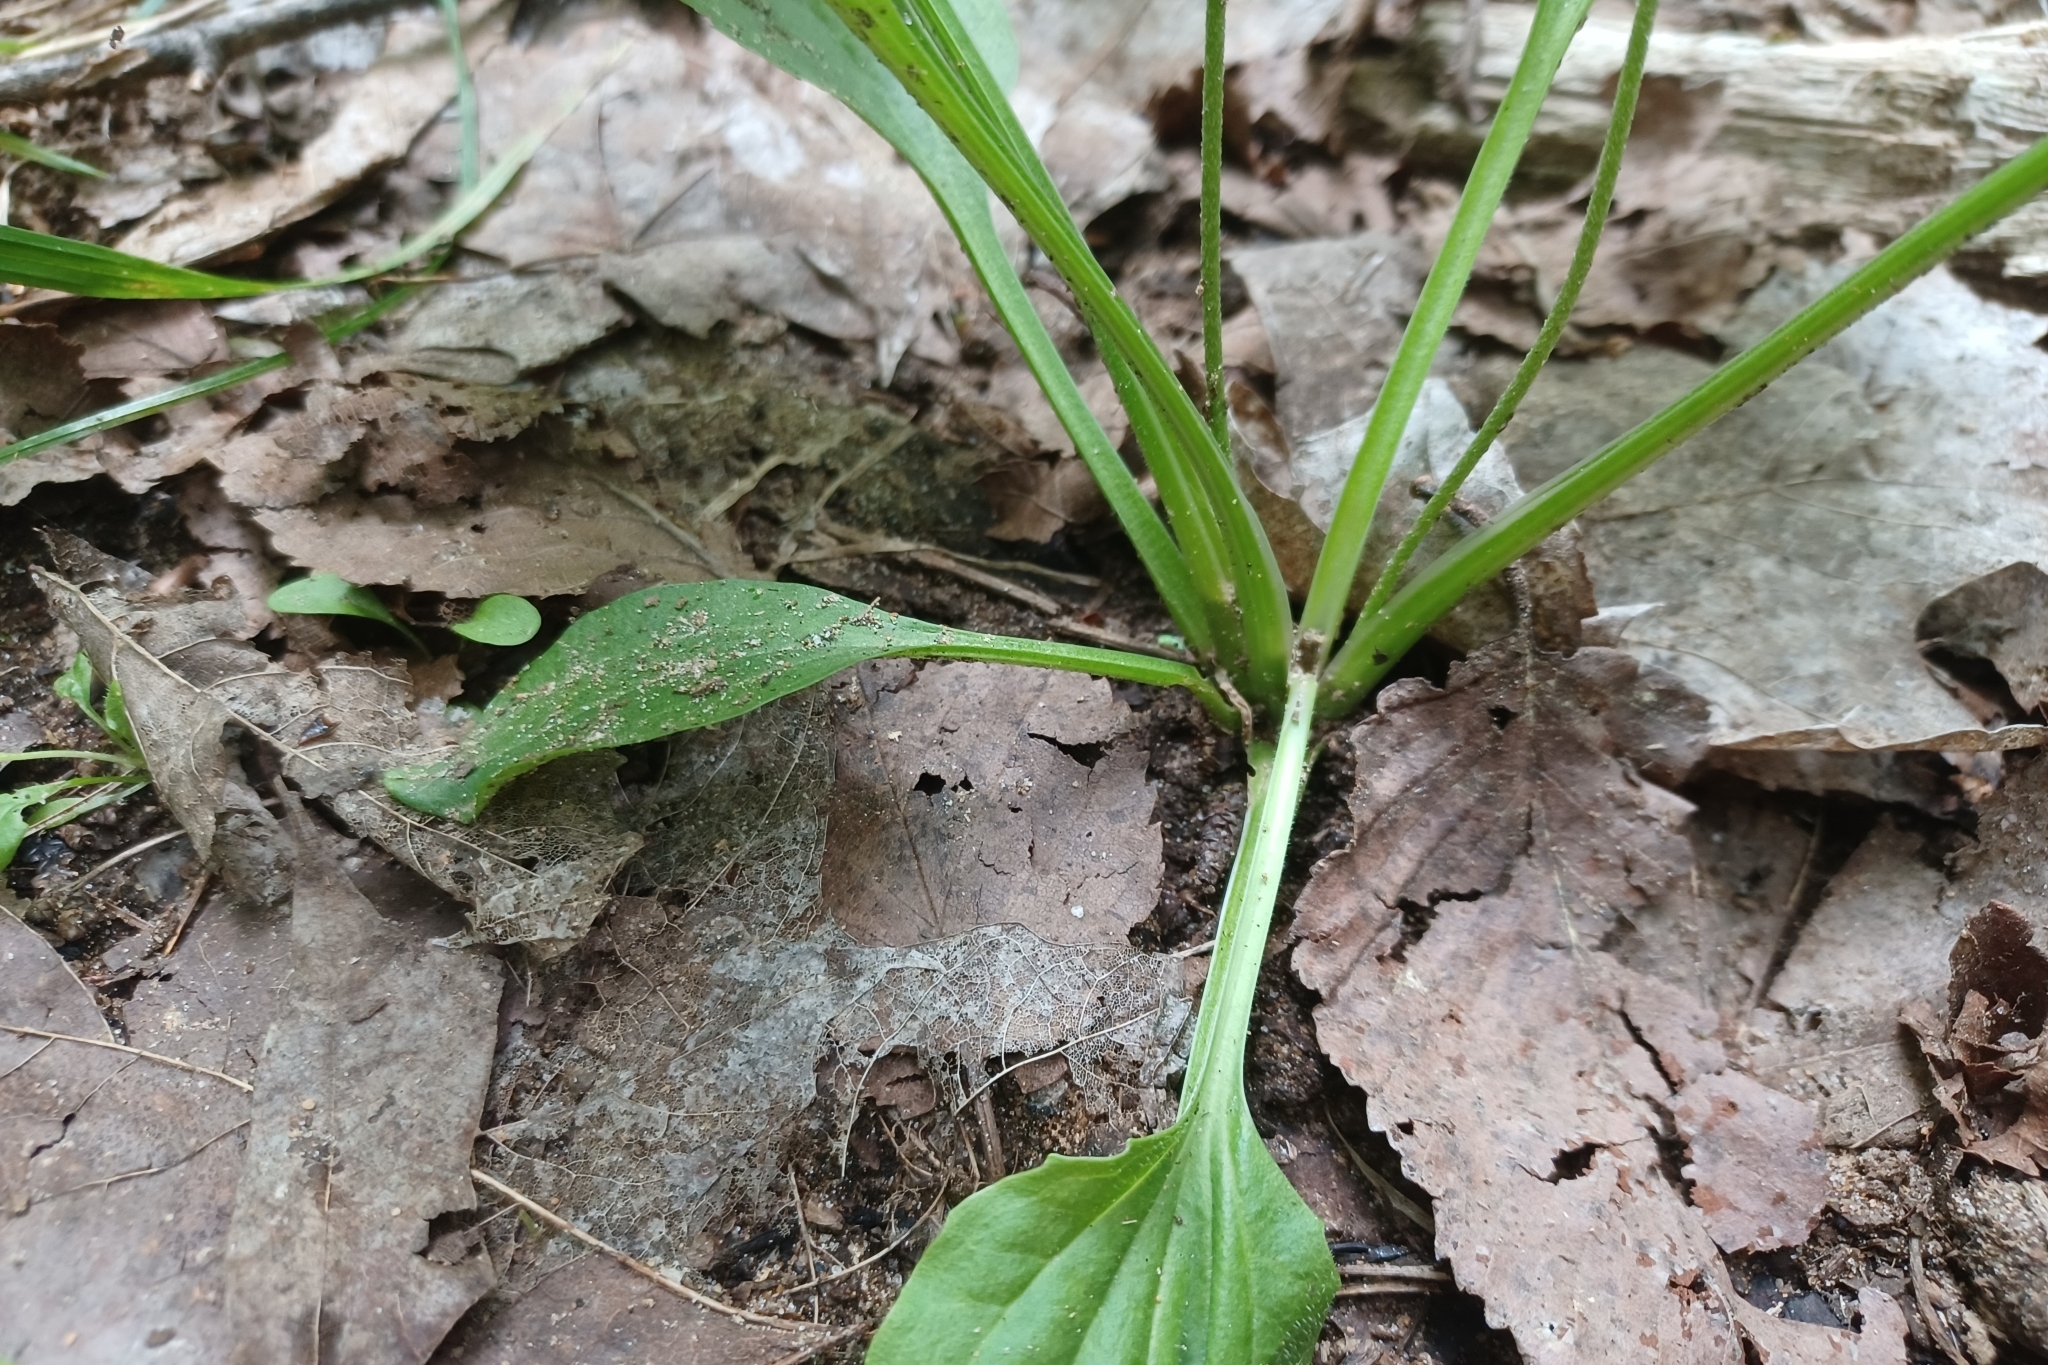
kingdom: Plantae
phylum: Tracheophyta
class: Magnoliopsida
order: Lamiales
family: Plantaginaceae
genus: Plantago
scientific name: Plantago major
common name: Common plantain
